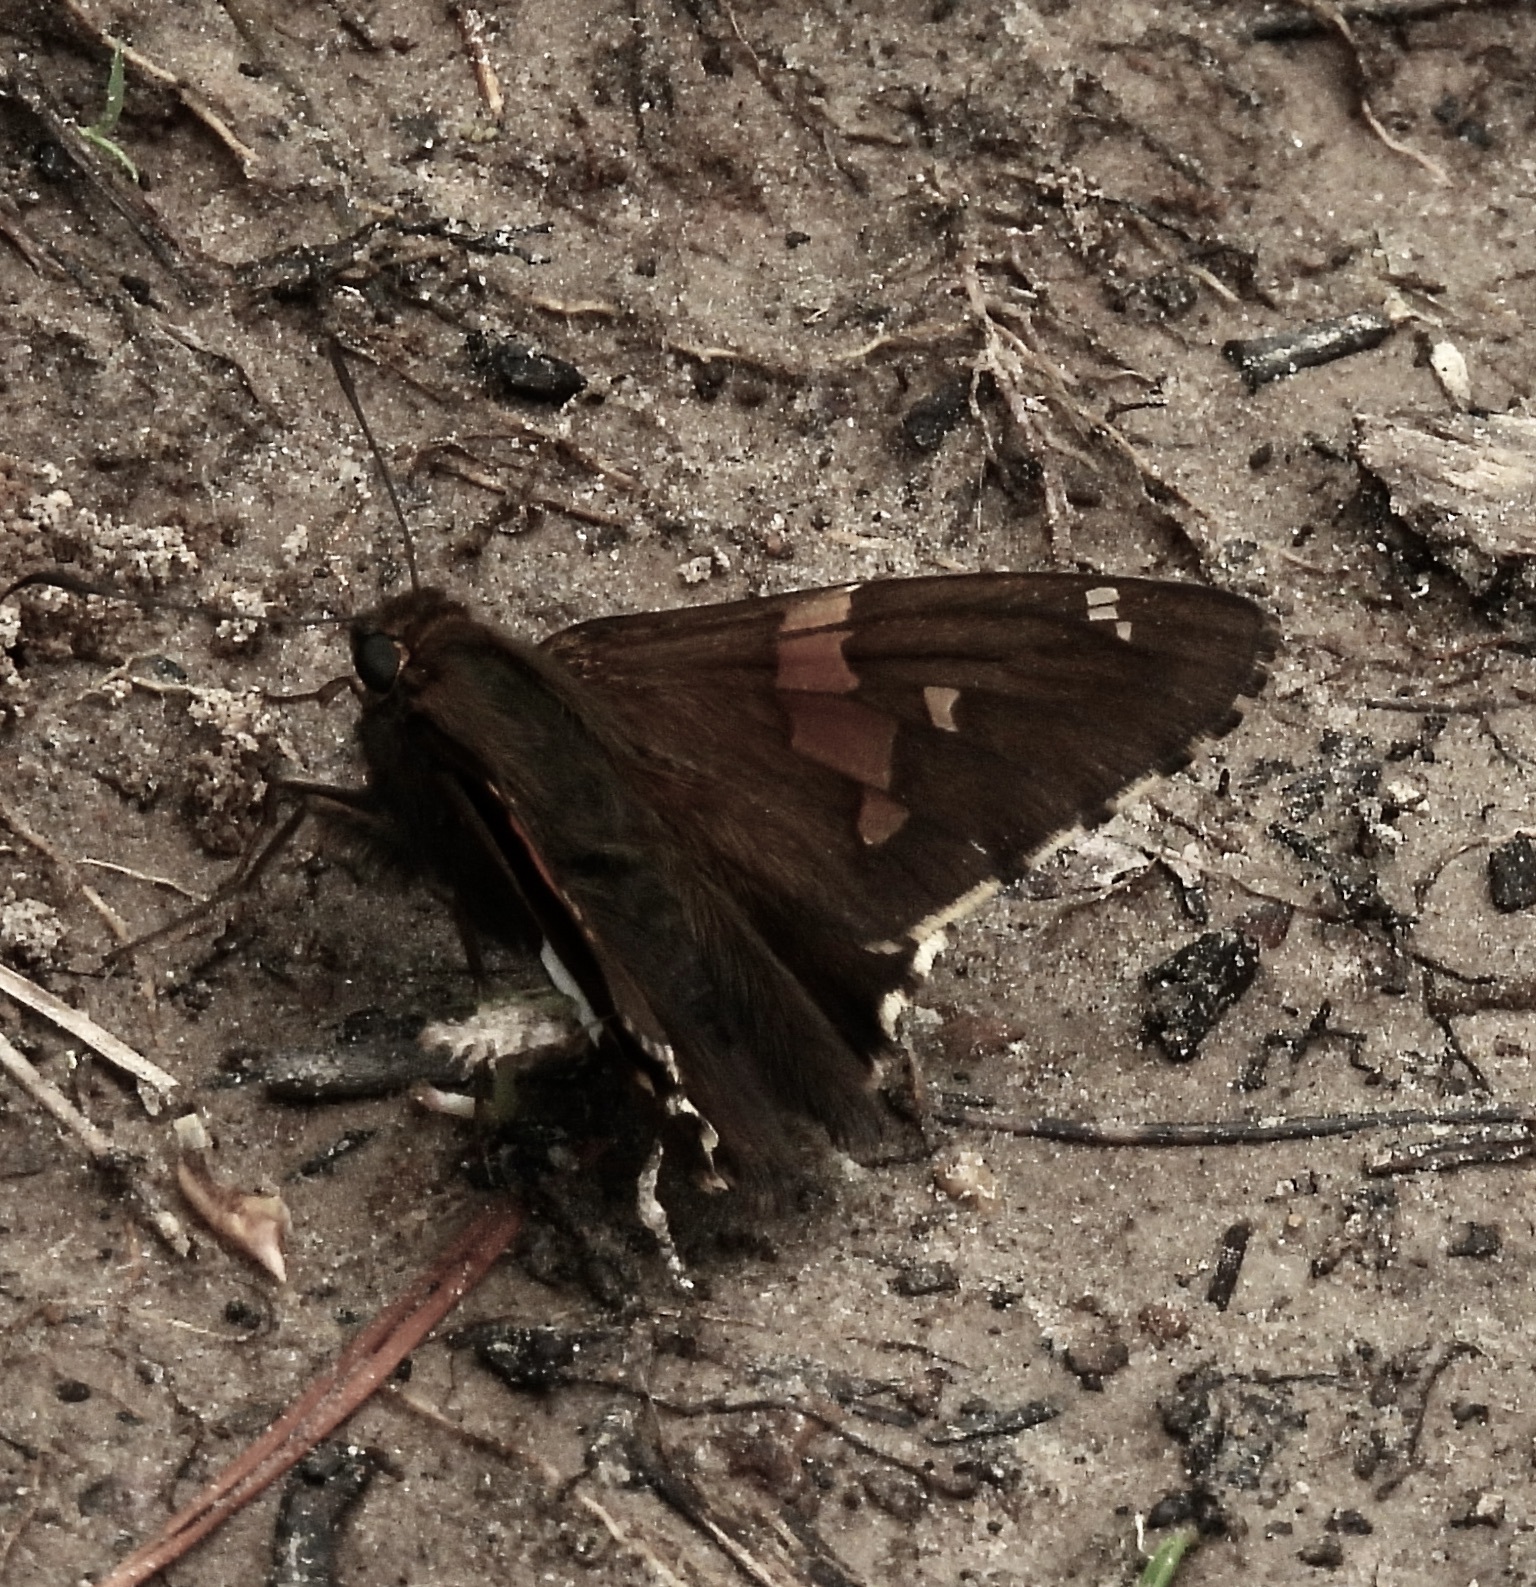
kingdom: Animalia
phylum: Arthropoda
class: Insecta
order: Lepidoptera
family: Hesperiidae
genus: Epargyreus
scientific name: Epargyreus clarus
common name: Silver-spotted skipper
